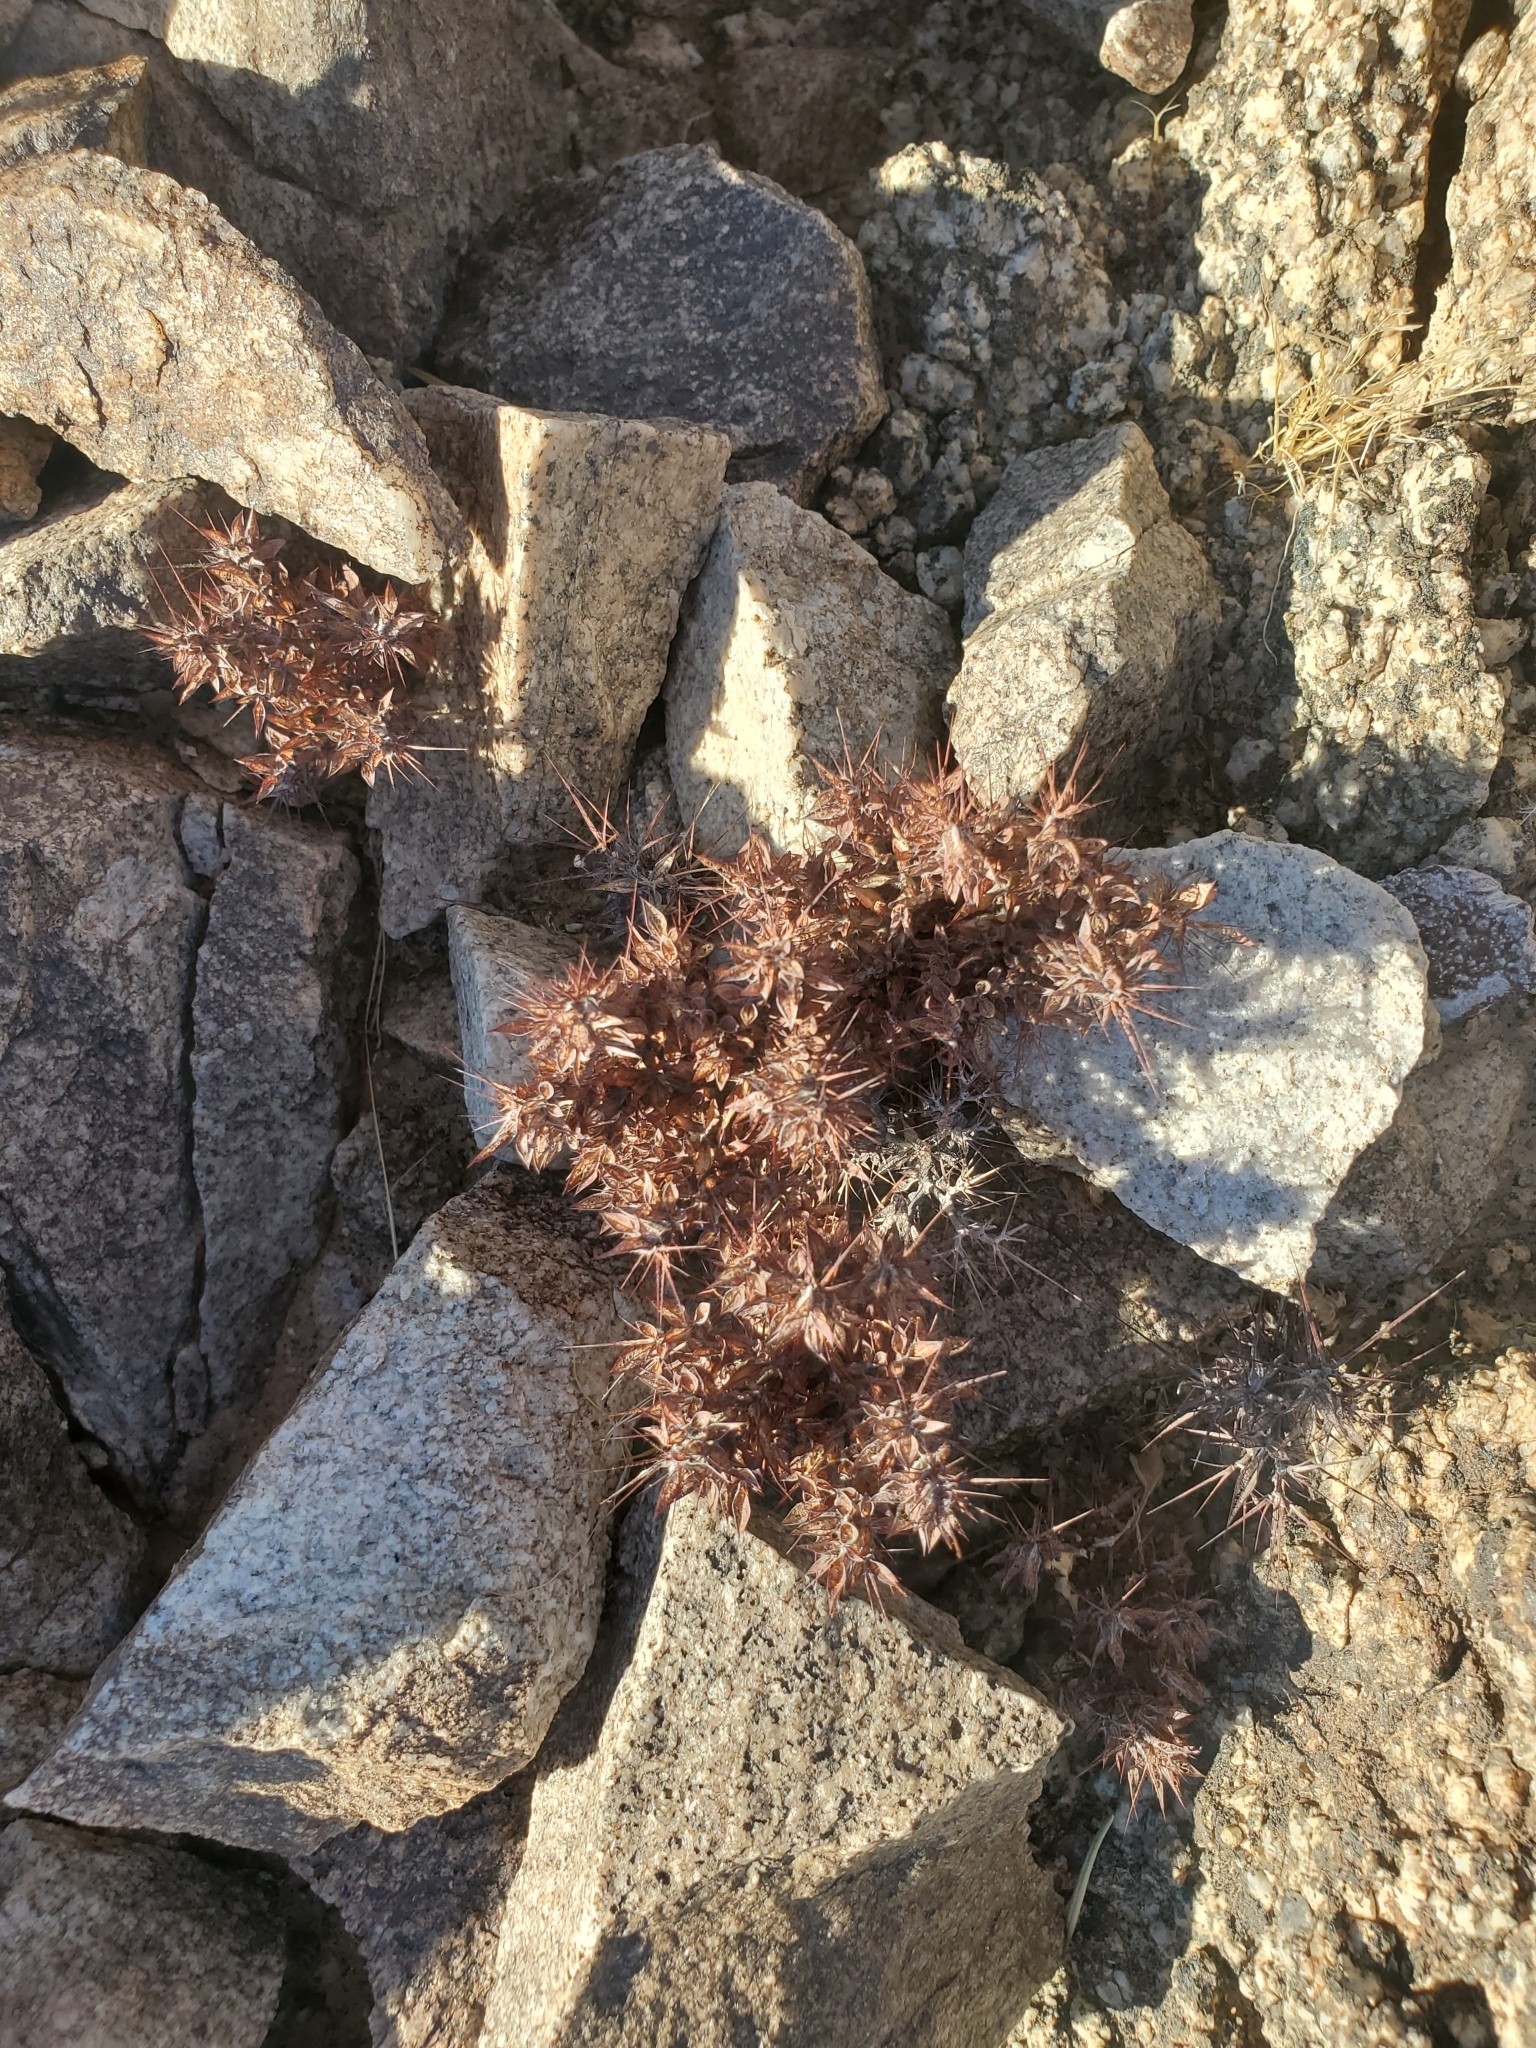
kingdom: Plantae
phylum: Tracheophyta
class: Magnoliopsida
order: Caryophyllales
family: Polygonaceae
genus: Chorizanthe
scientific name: Chorizanthe rigida
